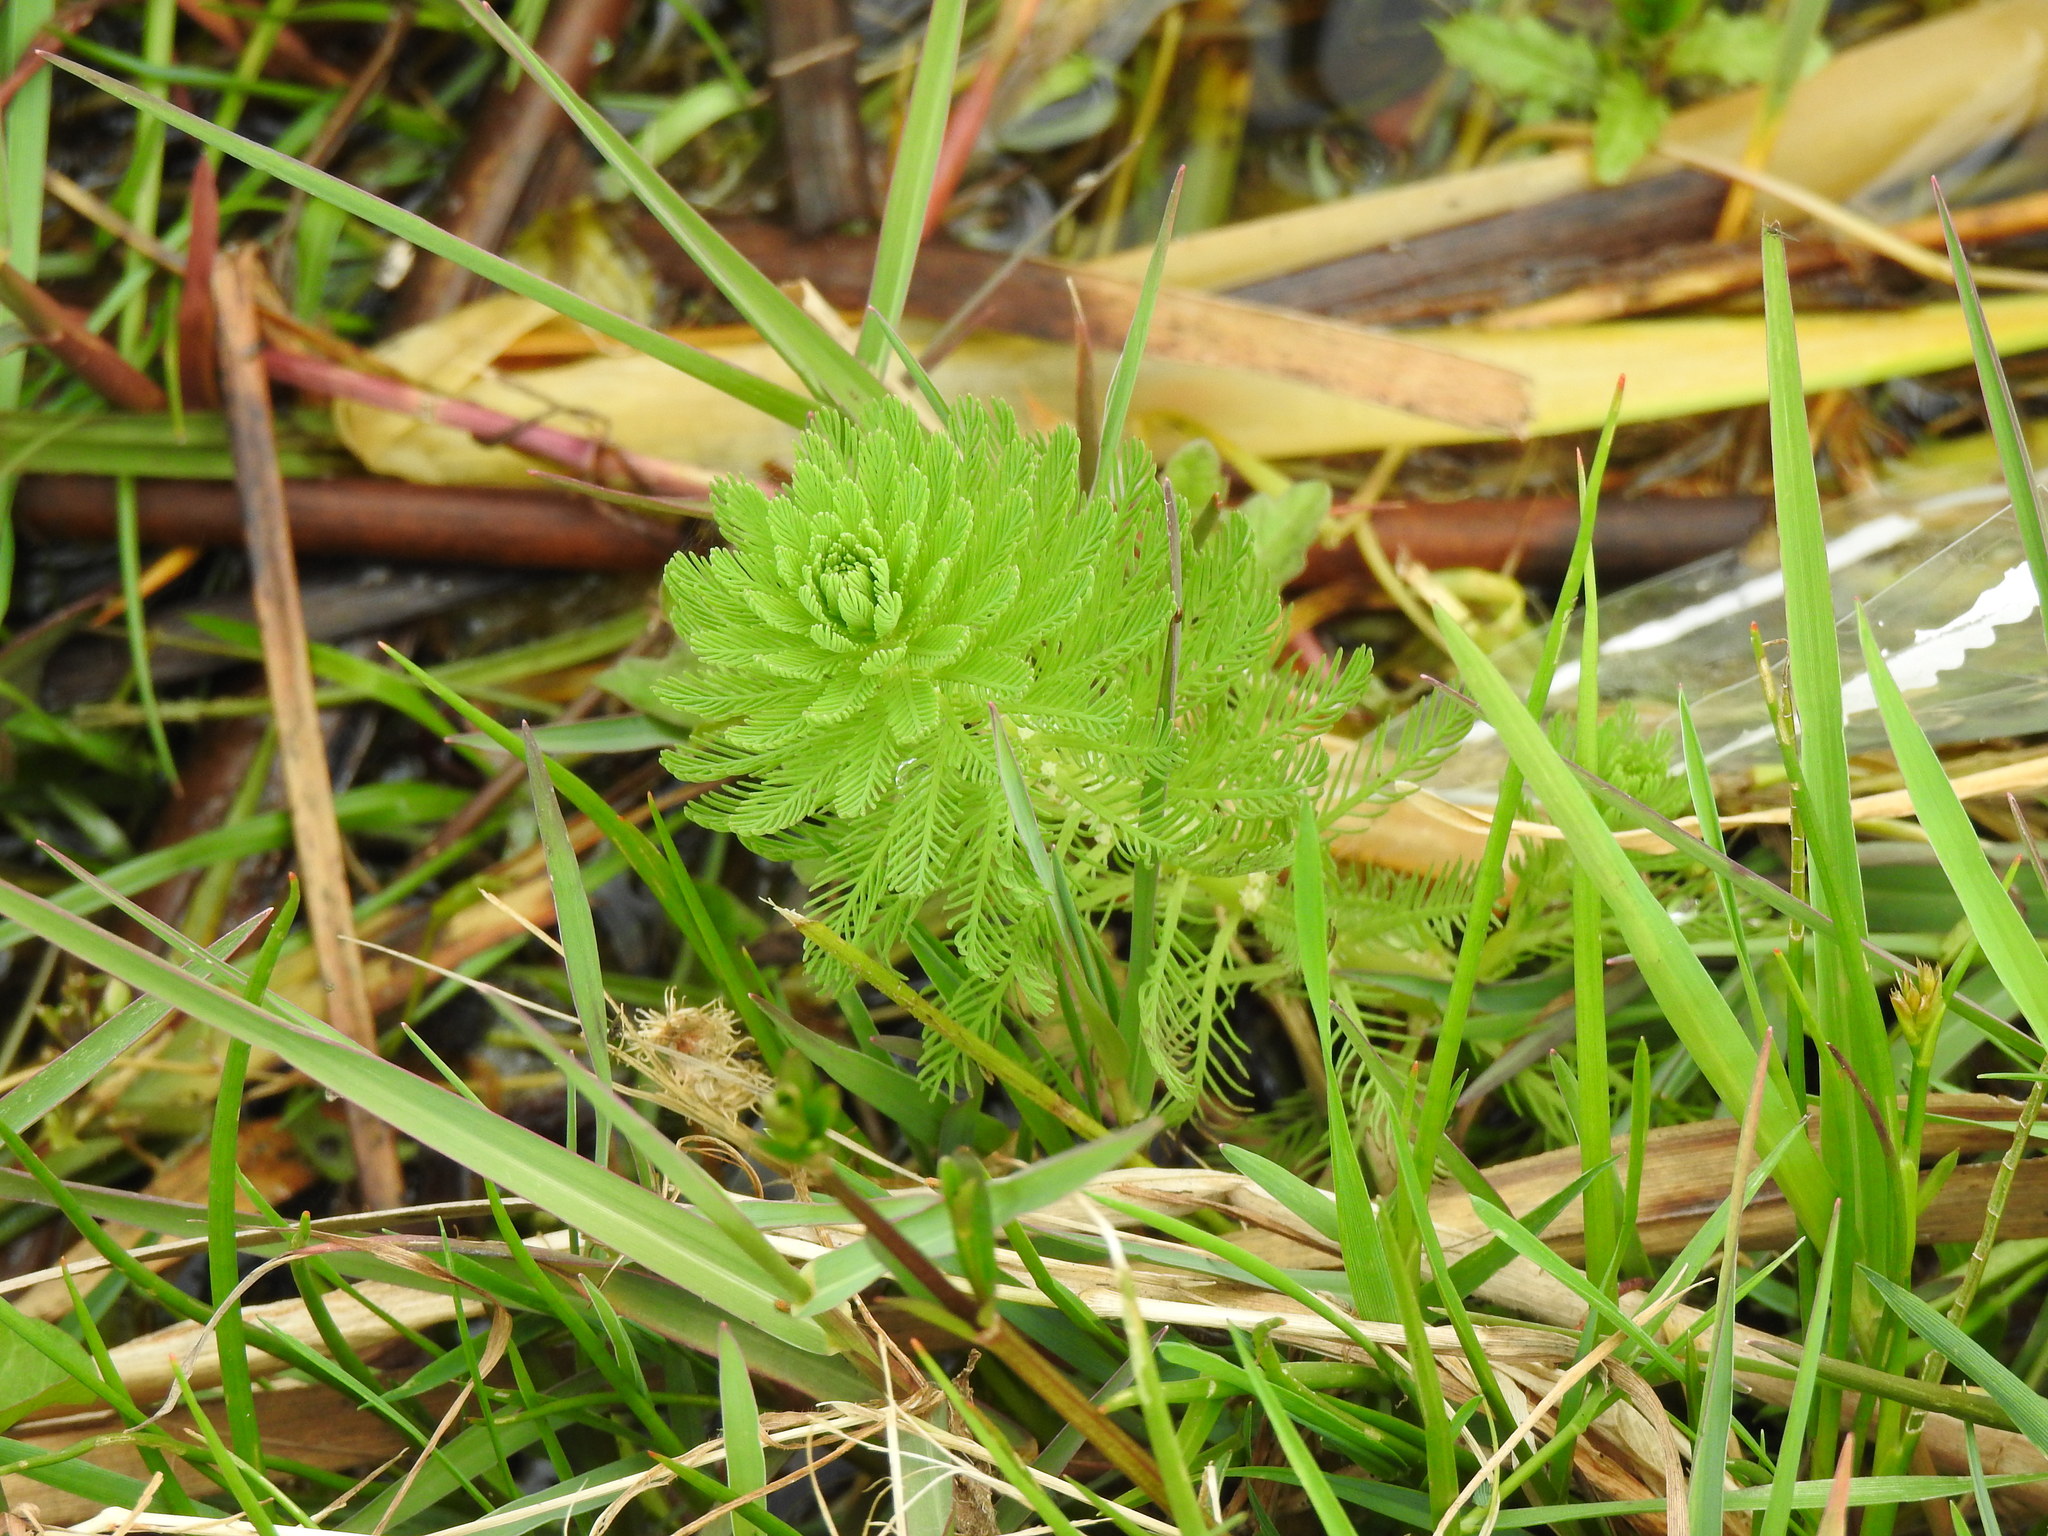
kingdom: Plantae
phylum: Tracheophyta
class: Magnoliopsida
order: Saxifragales
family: Haloragaceae
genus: Myriophyllum
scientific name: Myriophyllum aquaticum
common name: Parrot's feather
